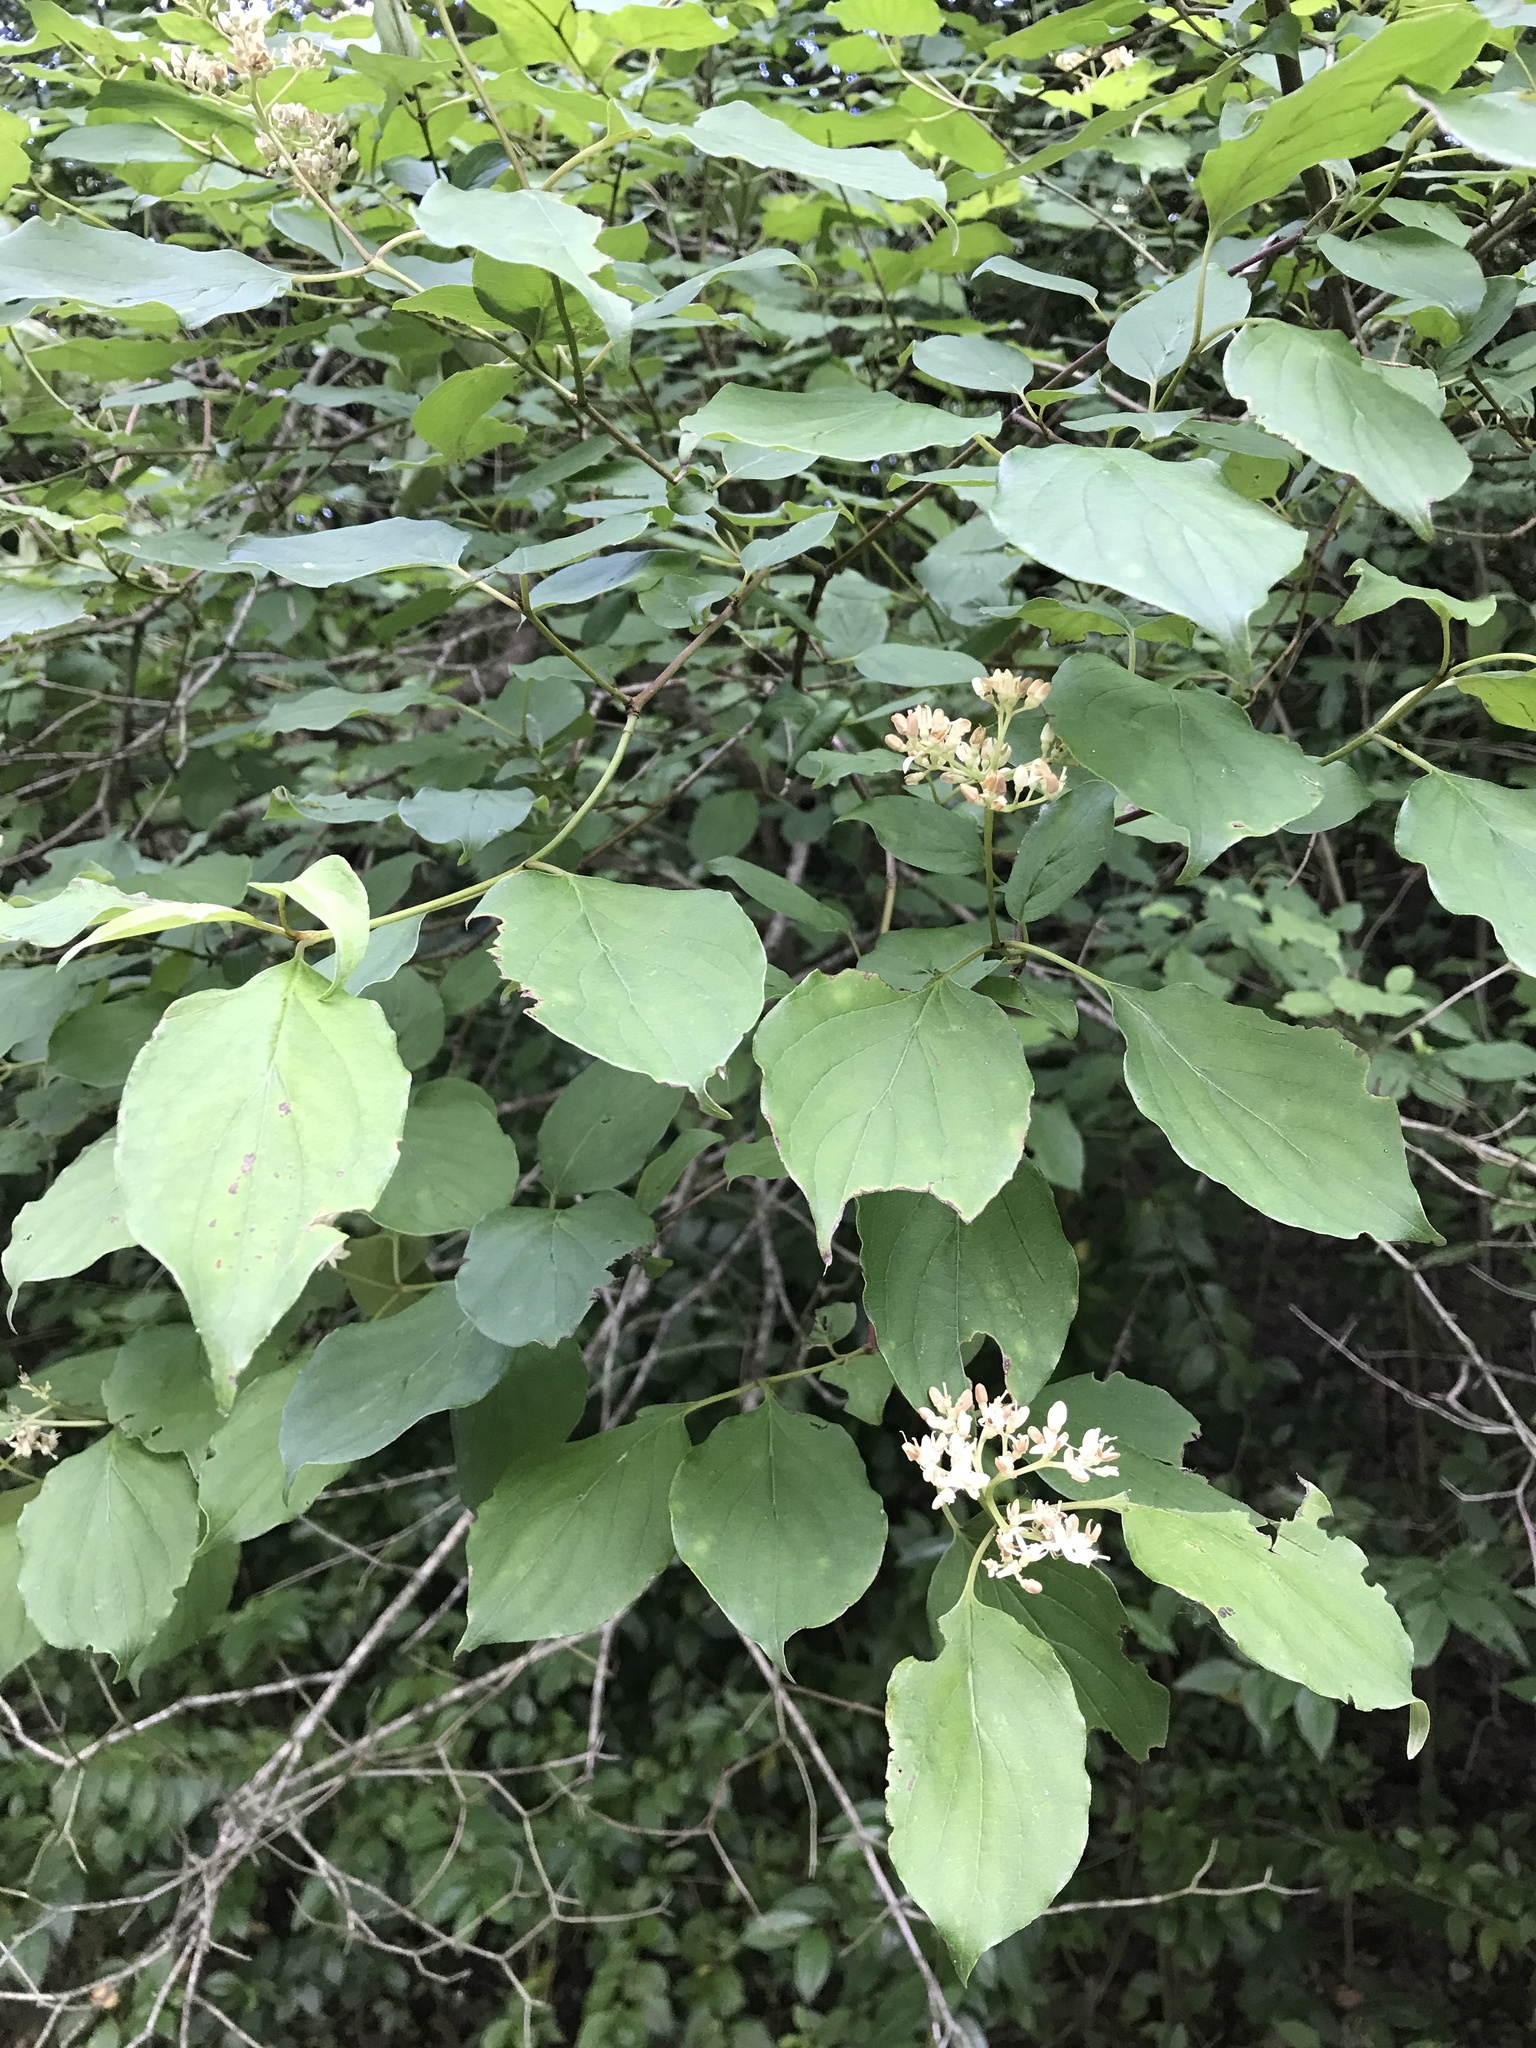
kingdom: Plantae
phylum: Tracheophyta
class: Magnoliopsida
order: Cornales
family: Cornaceae
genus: Cornus
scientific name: Cornus drummondii
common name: Rough-leaf dogwood
